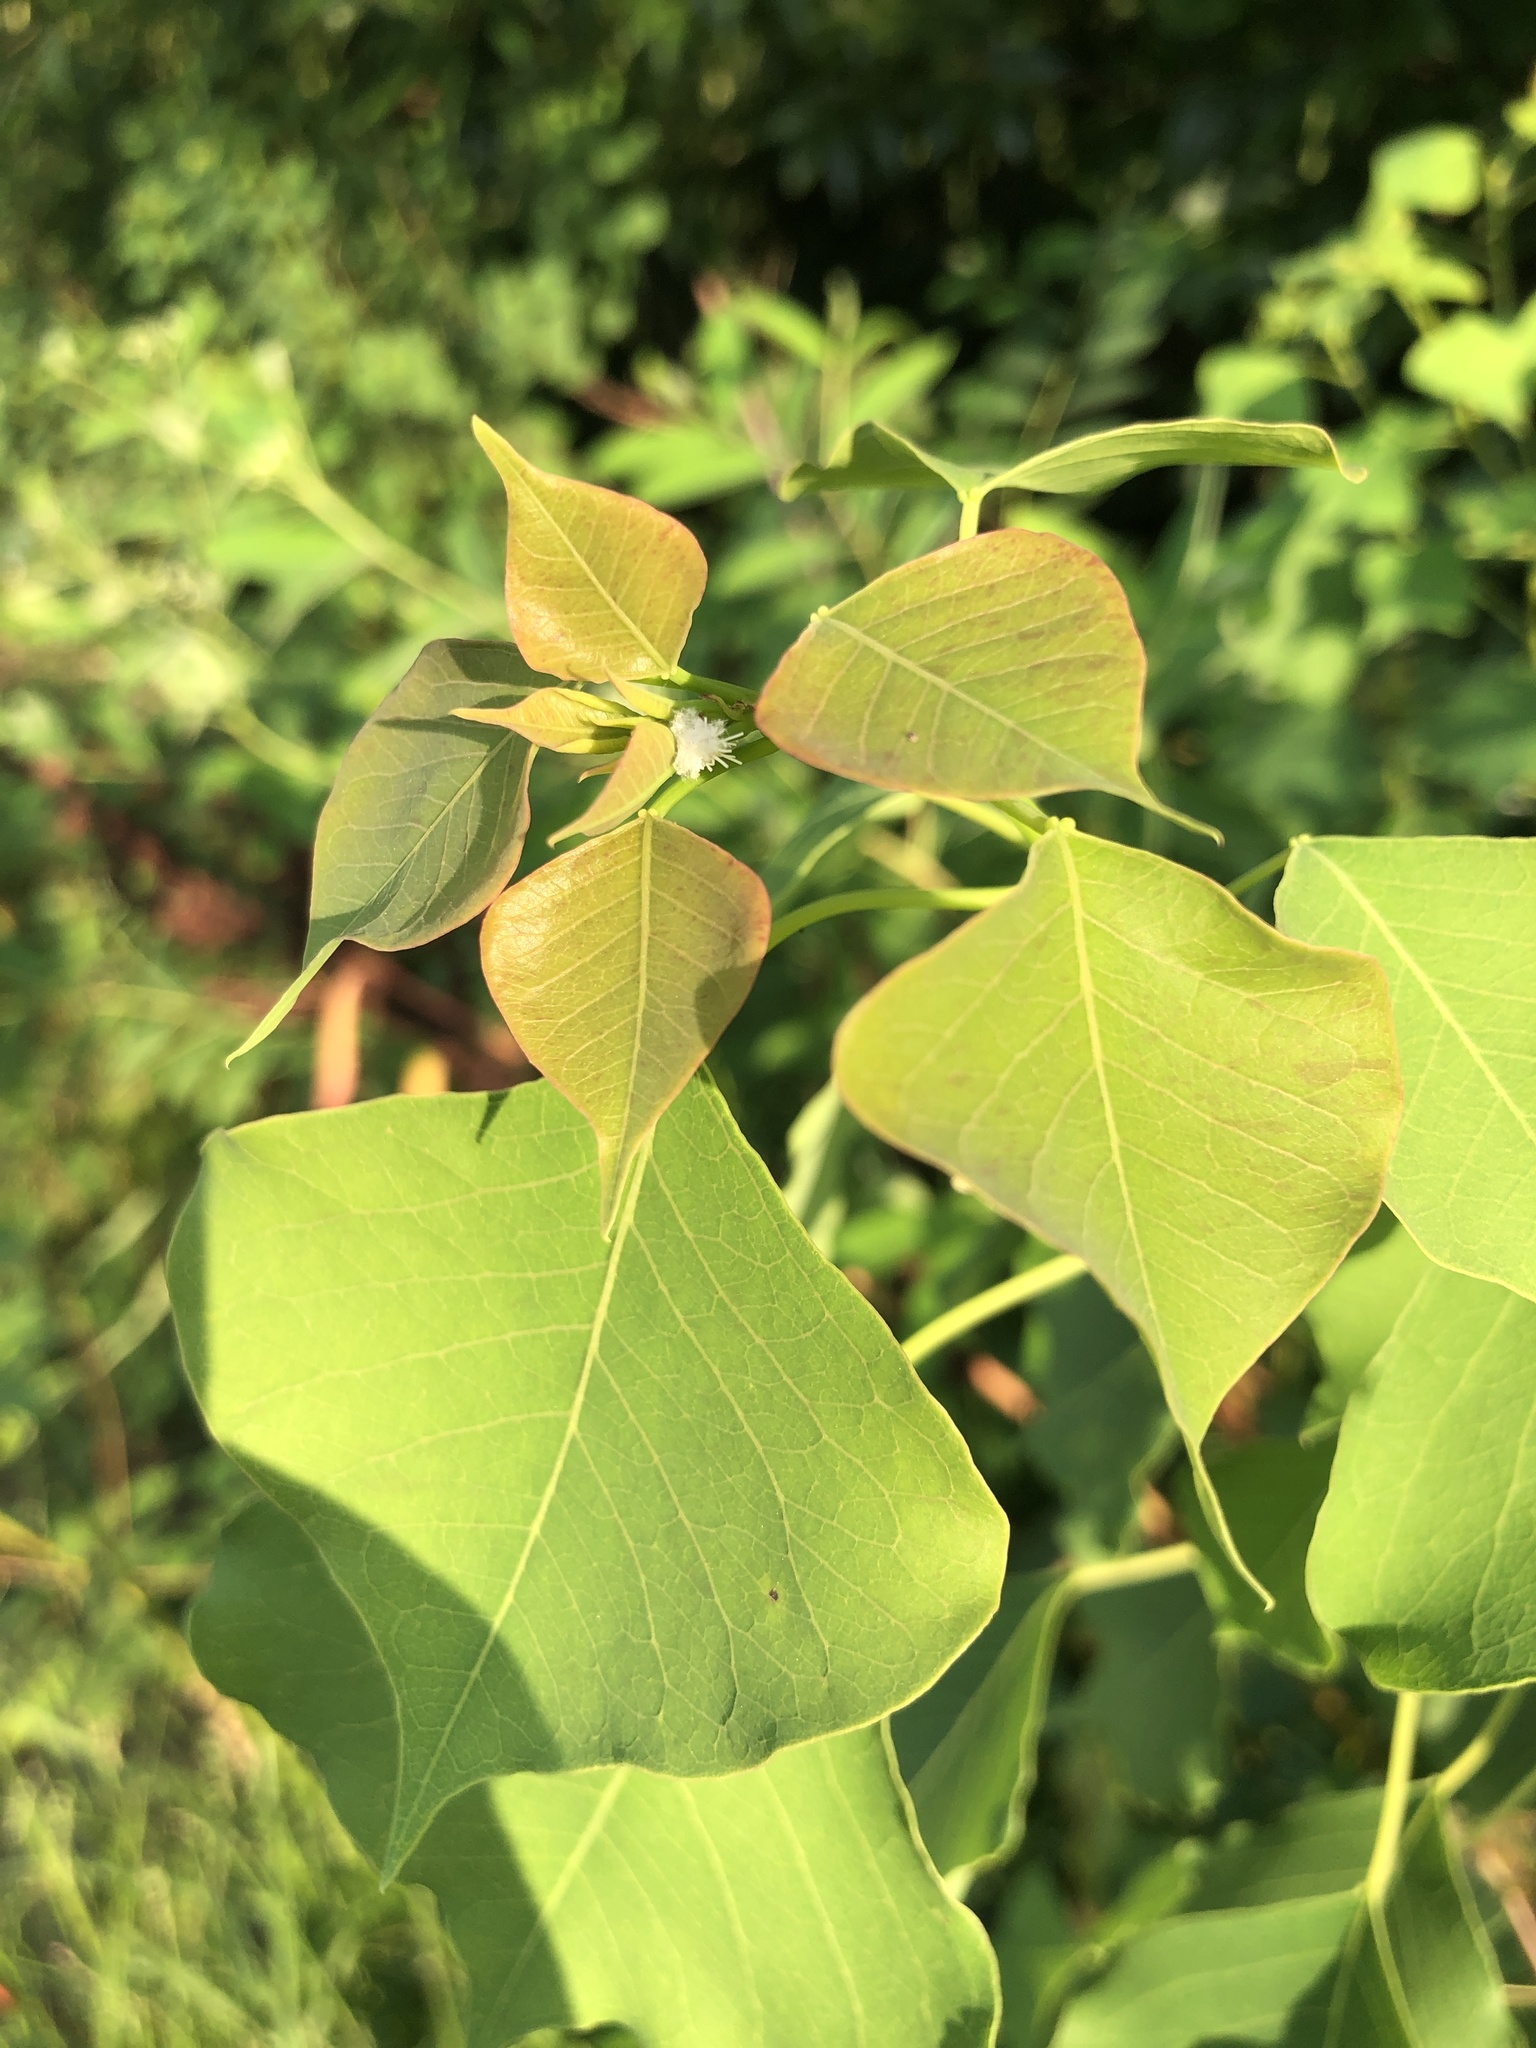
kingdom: Plantae
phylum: Tracheophyta
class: Magnoliopsida
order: Malpighiales
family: Euphorbiaceae
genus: Triadica
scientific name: Triadica sebifera
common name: Chinese tallow
